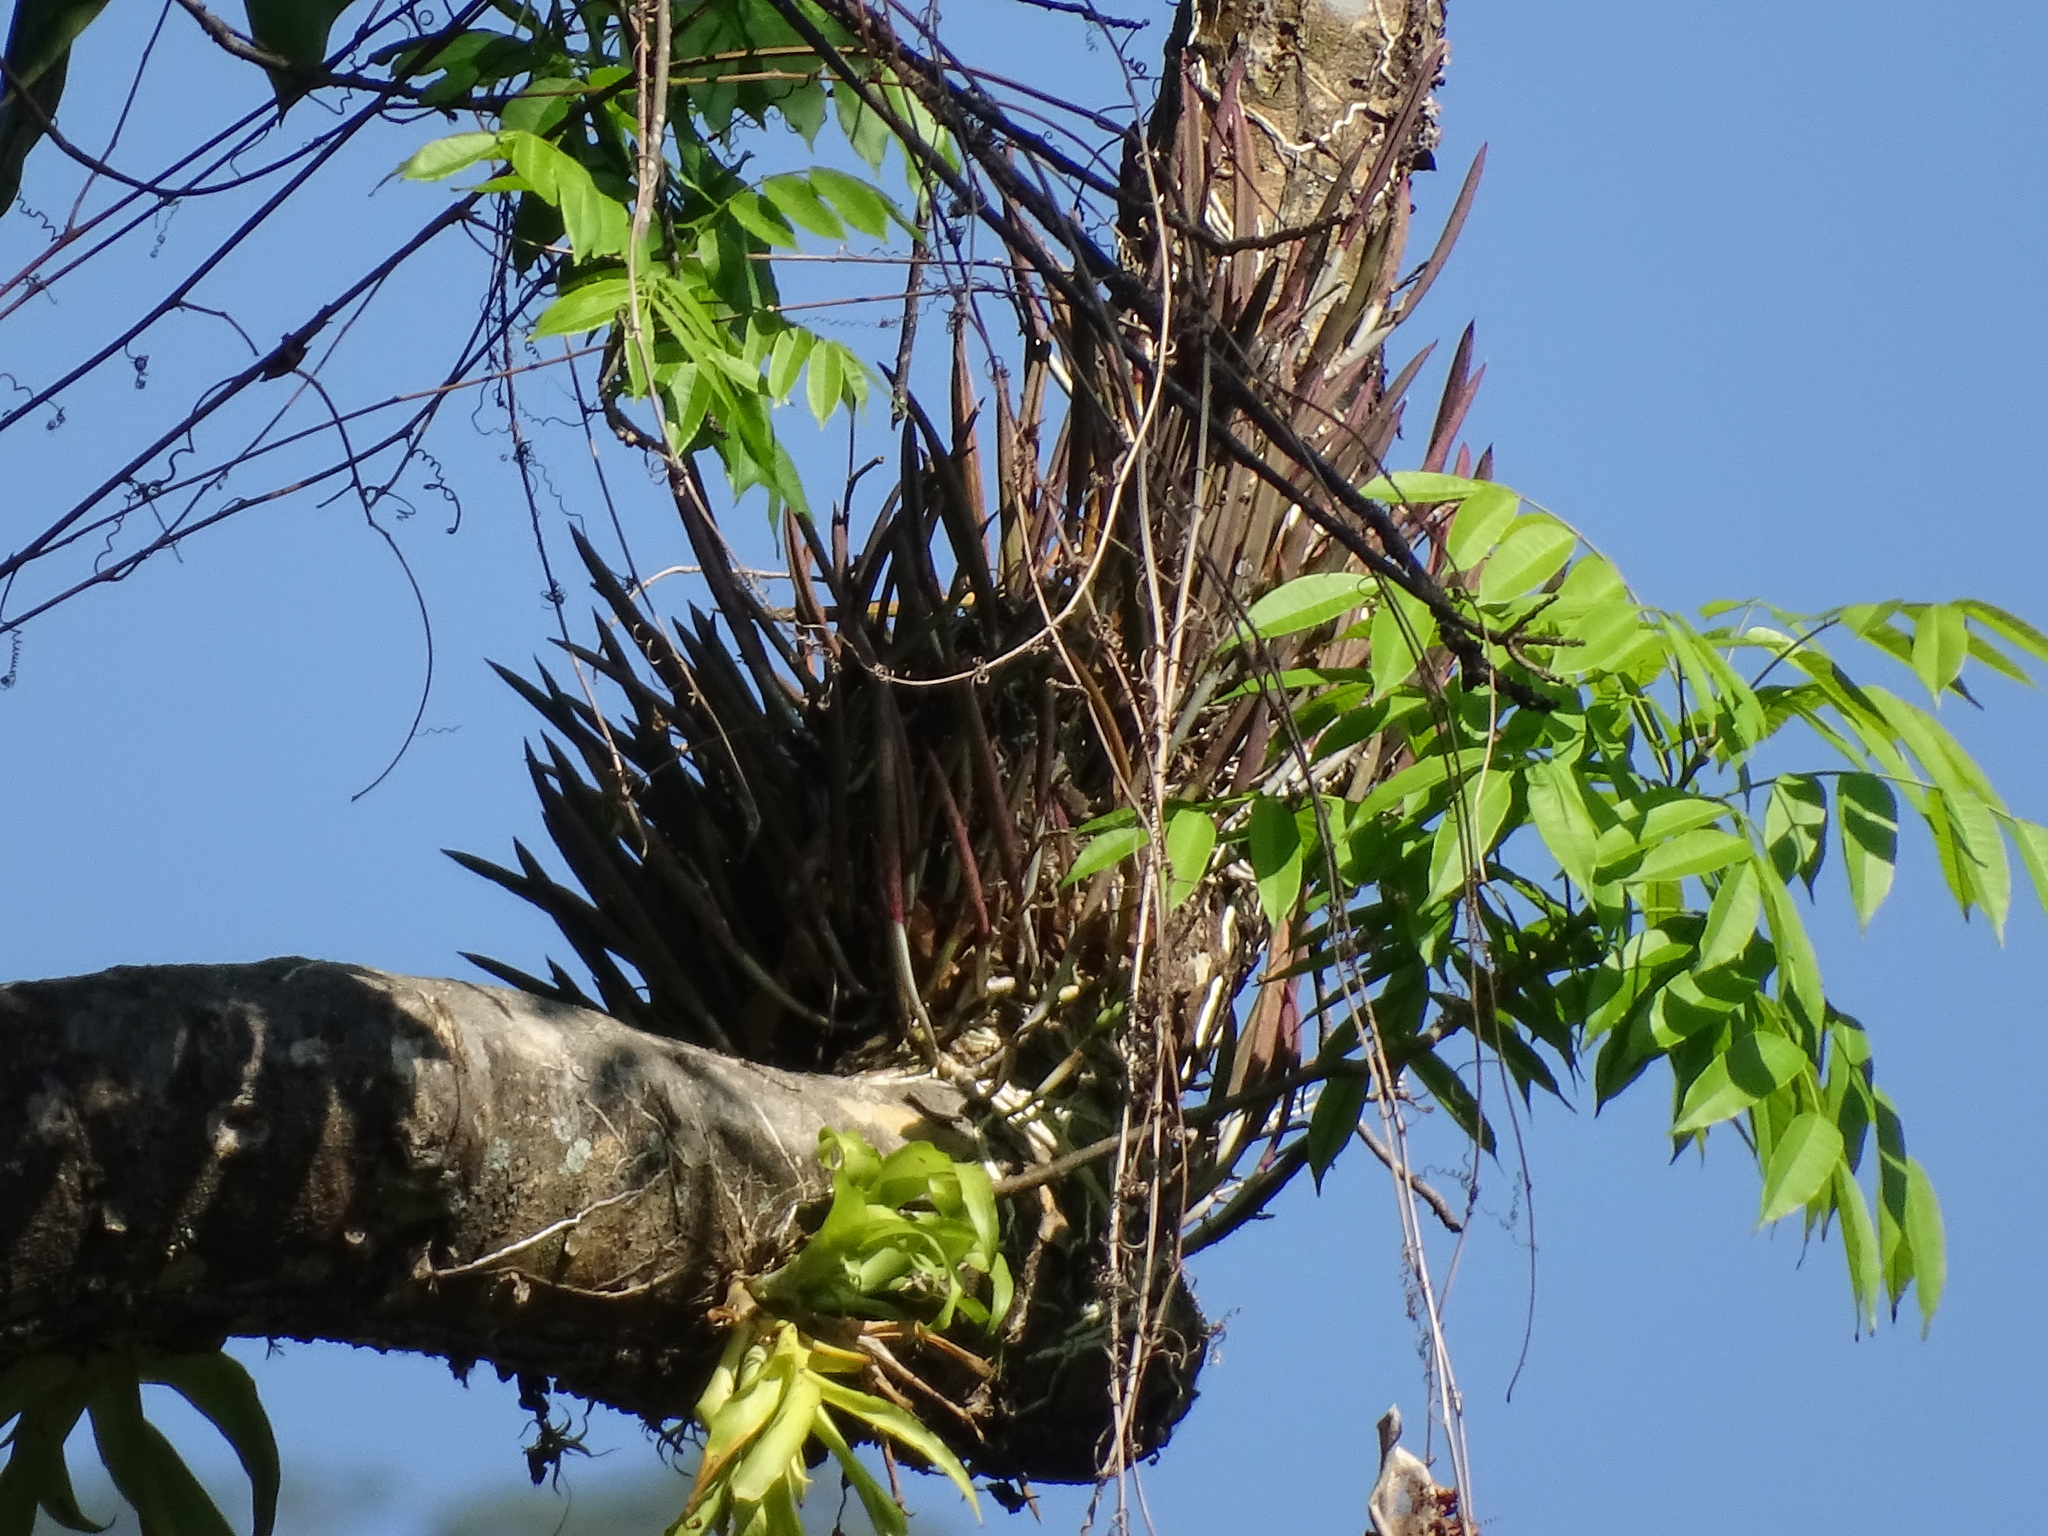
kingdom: Plantae
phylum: Tracheophyta
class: Liliopsida
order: Asparagales
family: Orchidaceae
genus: Brassavola
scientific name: Brassavola nodosa
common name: Lady of the night
